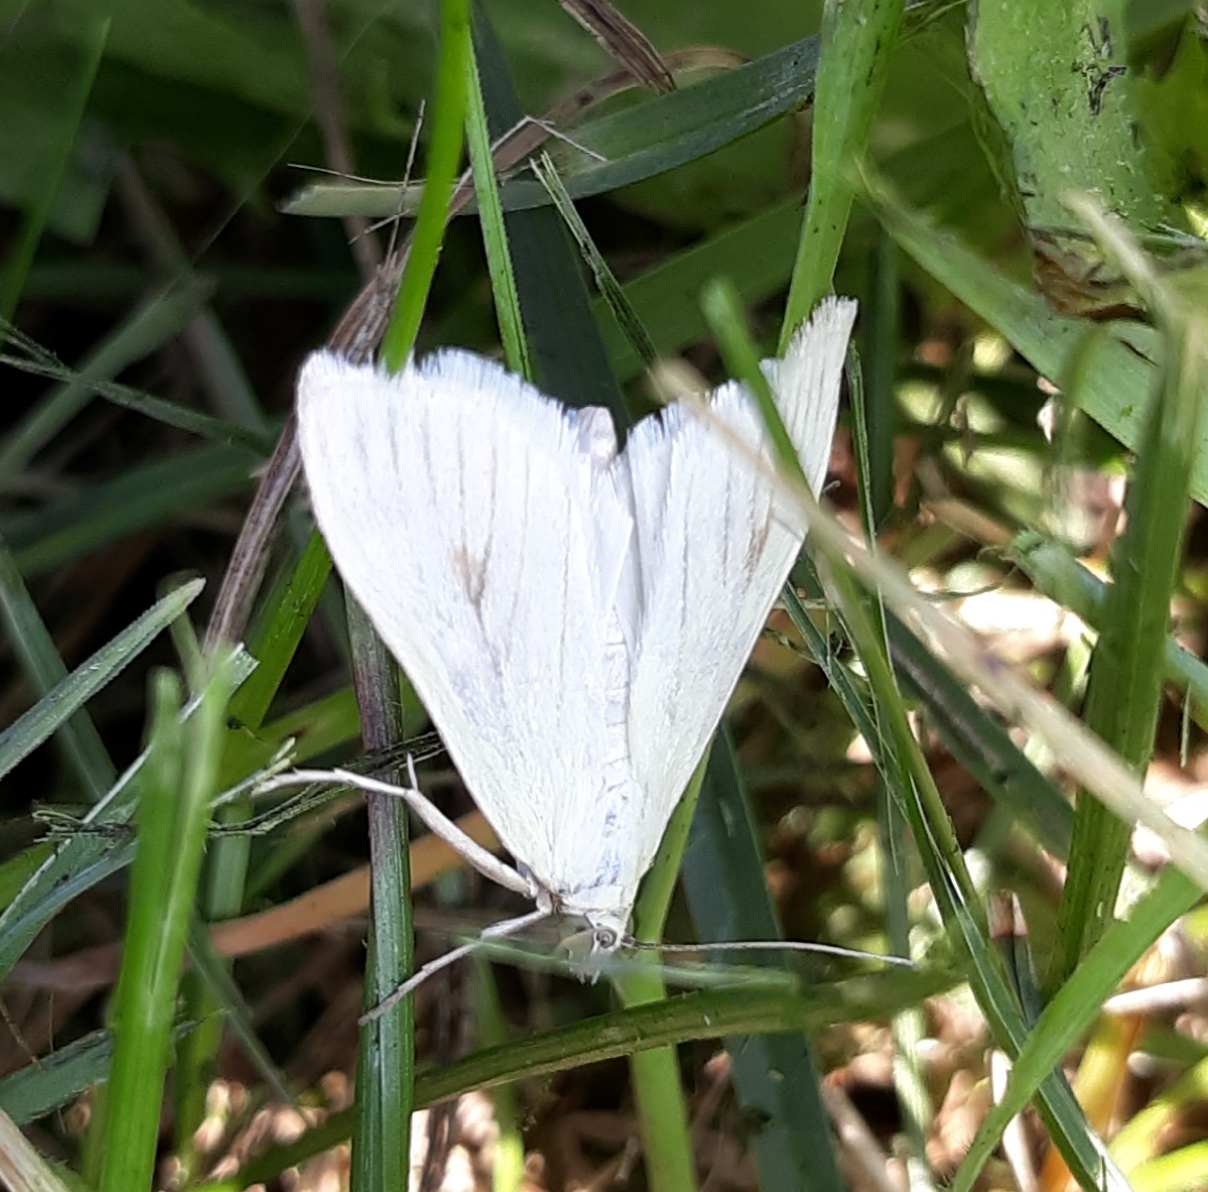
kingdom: Animalia
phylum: Arthropoda
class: Insecta
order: Lepidoptera
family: Crambidae
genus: Sitochroa
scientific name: Sitochroa palealis
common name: Greenish-yellow sitochroa moth
